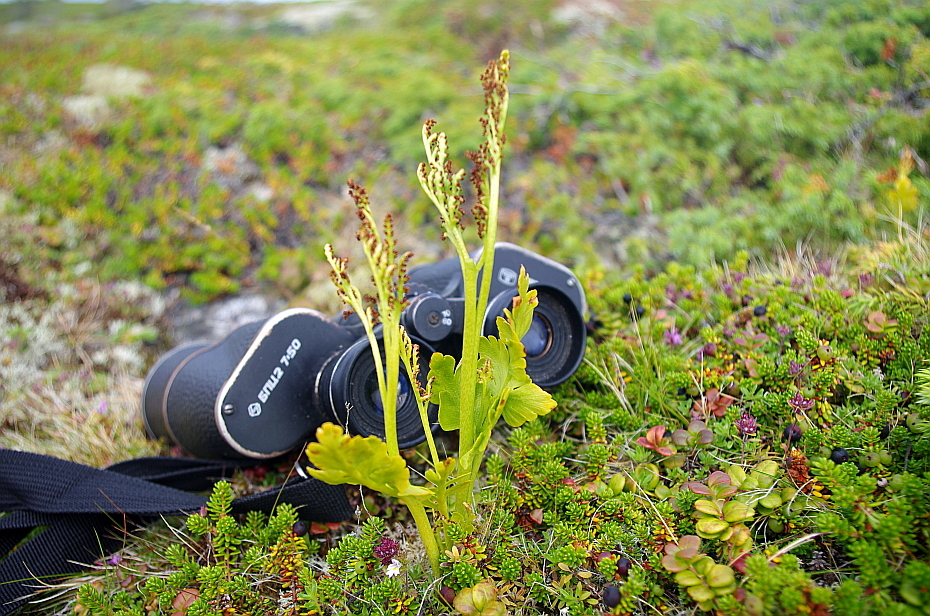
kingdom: Plantae
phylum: Tracheophyta
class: Polypodiopsida
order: Ophioglossales
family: Ophioglossaceae
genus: Botrychium
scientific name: Botrychium boreale
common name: Boreal moonwort
